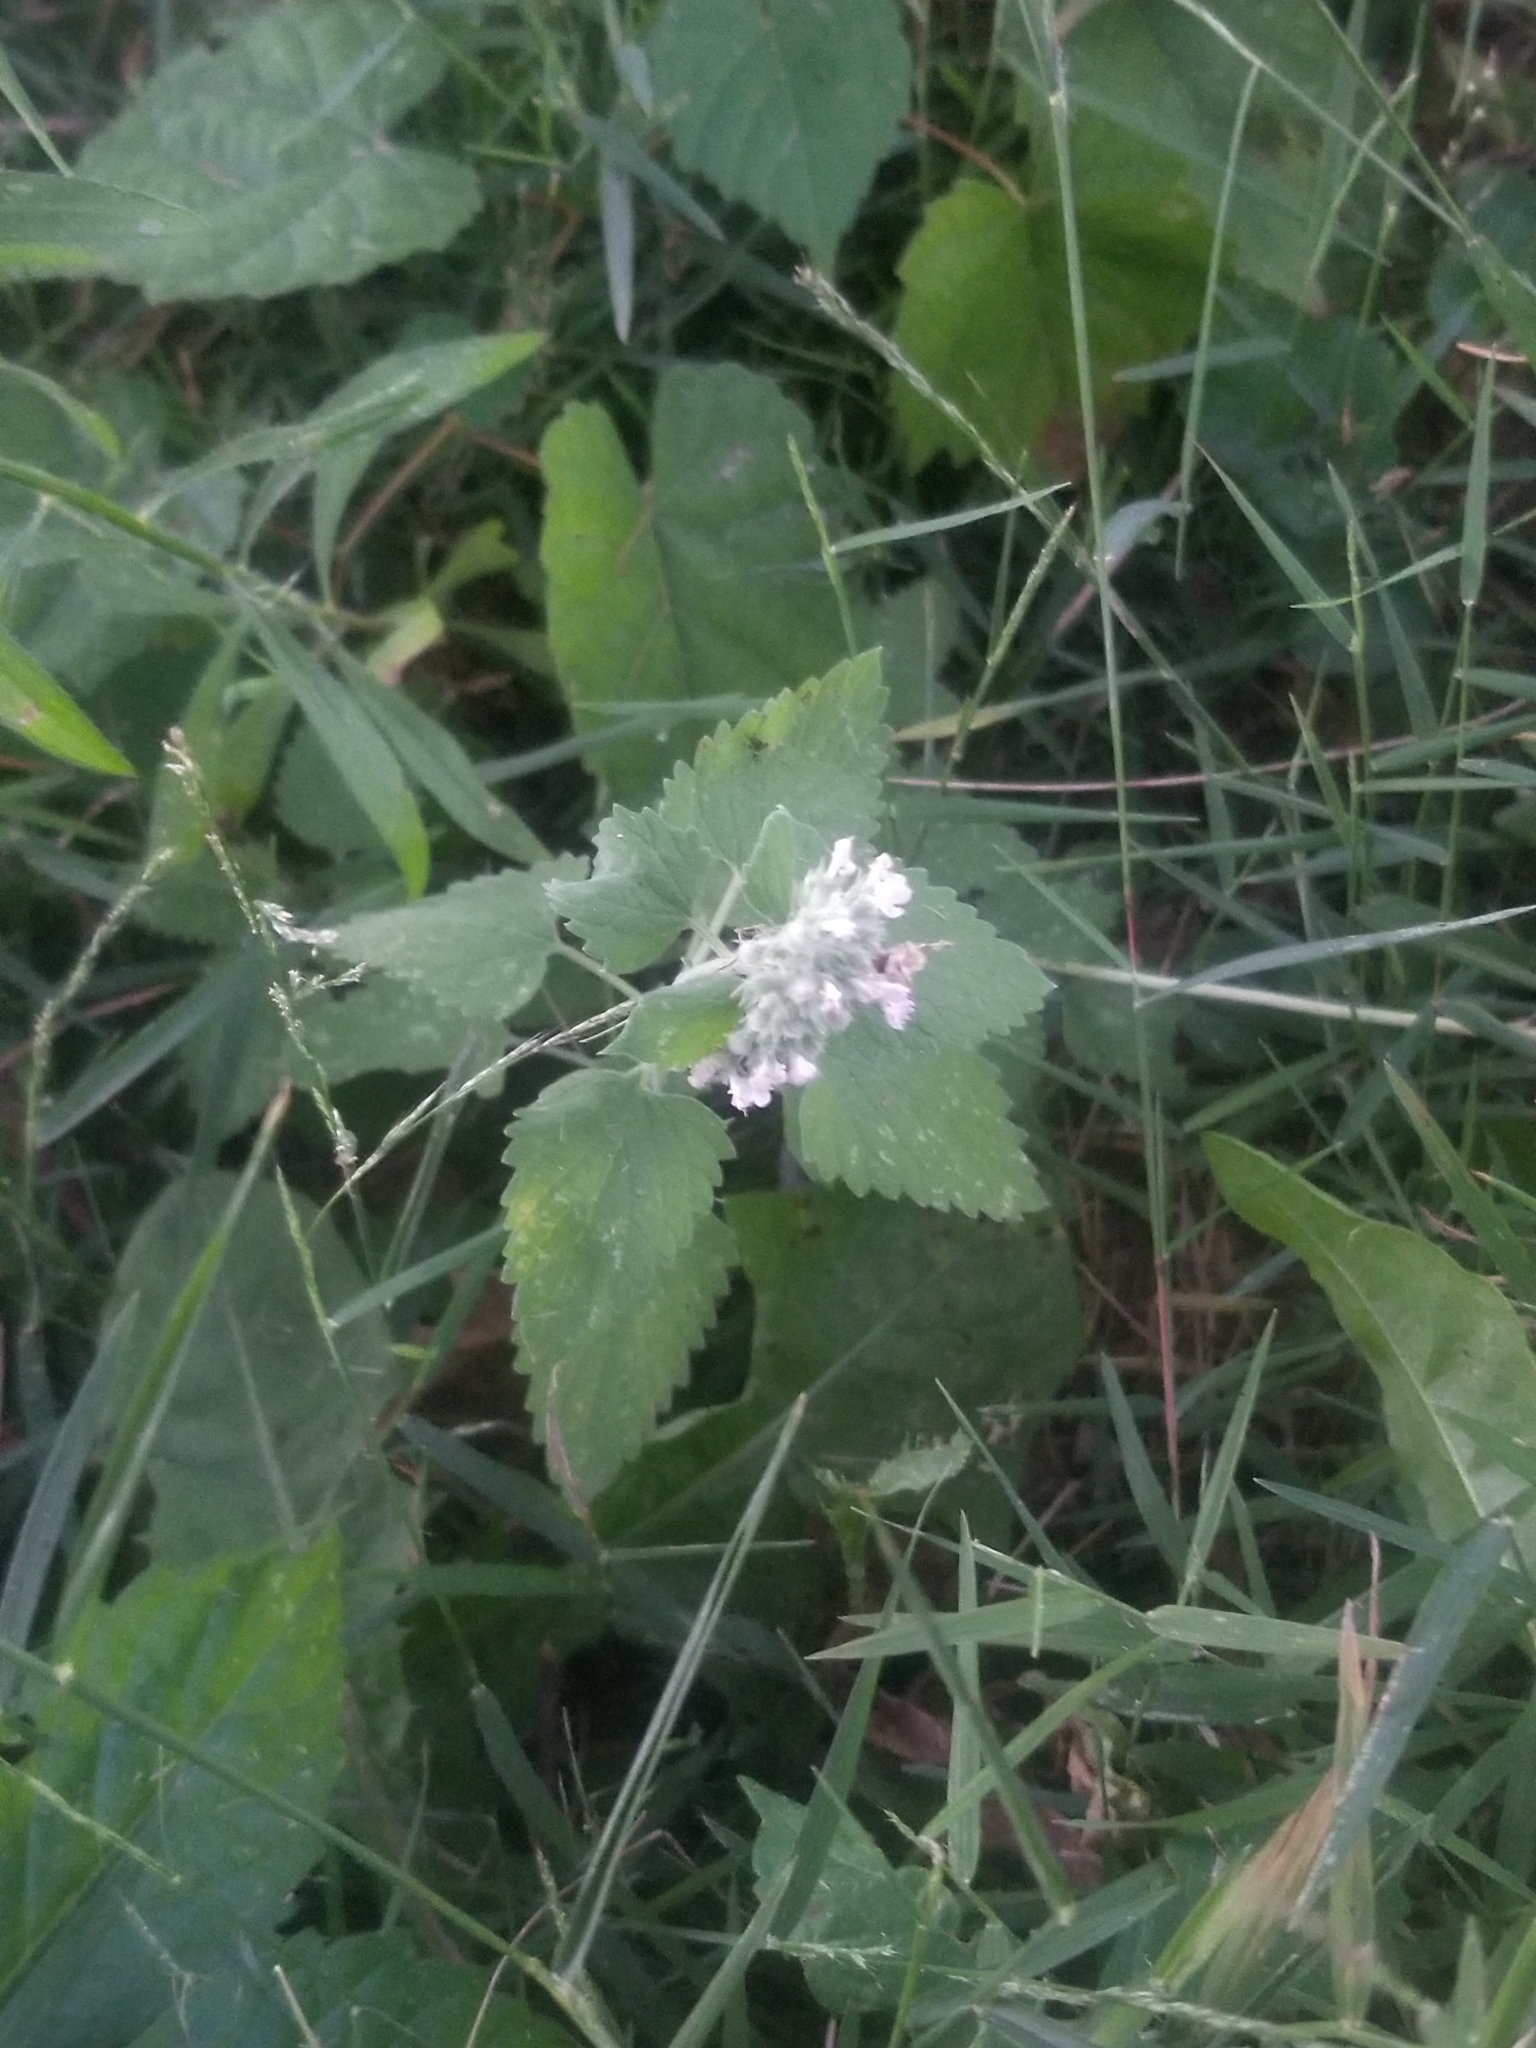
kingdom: Plantae
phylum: Tracheophyta
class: Magnoliopsida
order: Lamiales
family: Lamiaceae
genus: Nepeta
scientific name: Nepeta cataria
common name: Catnip
